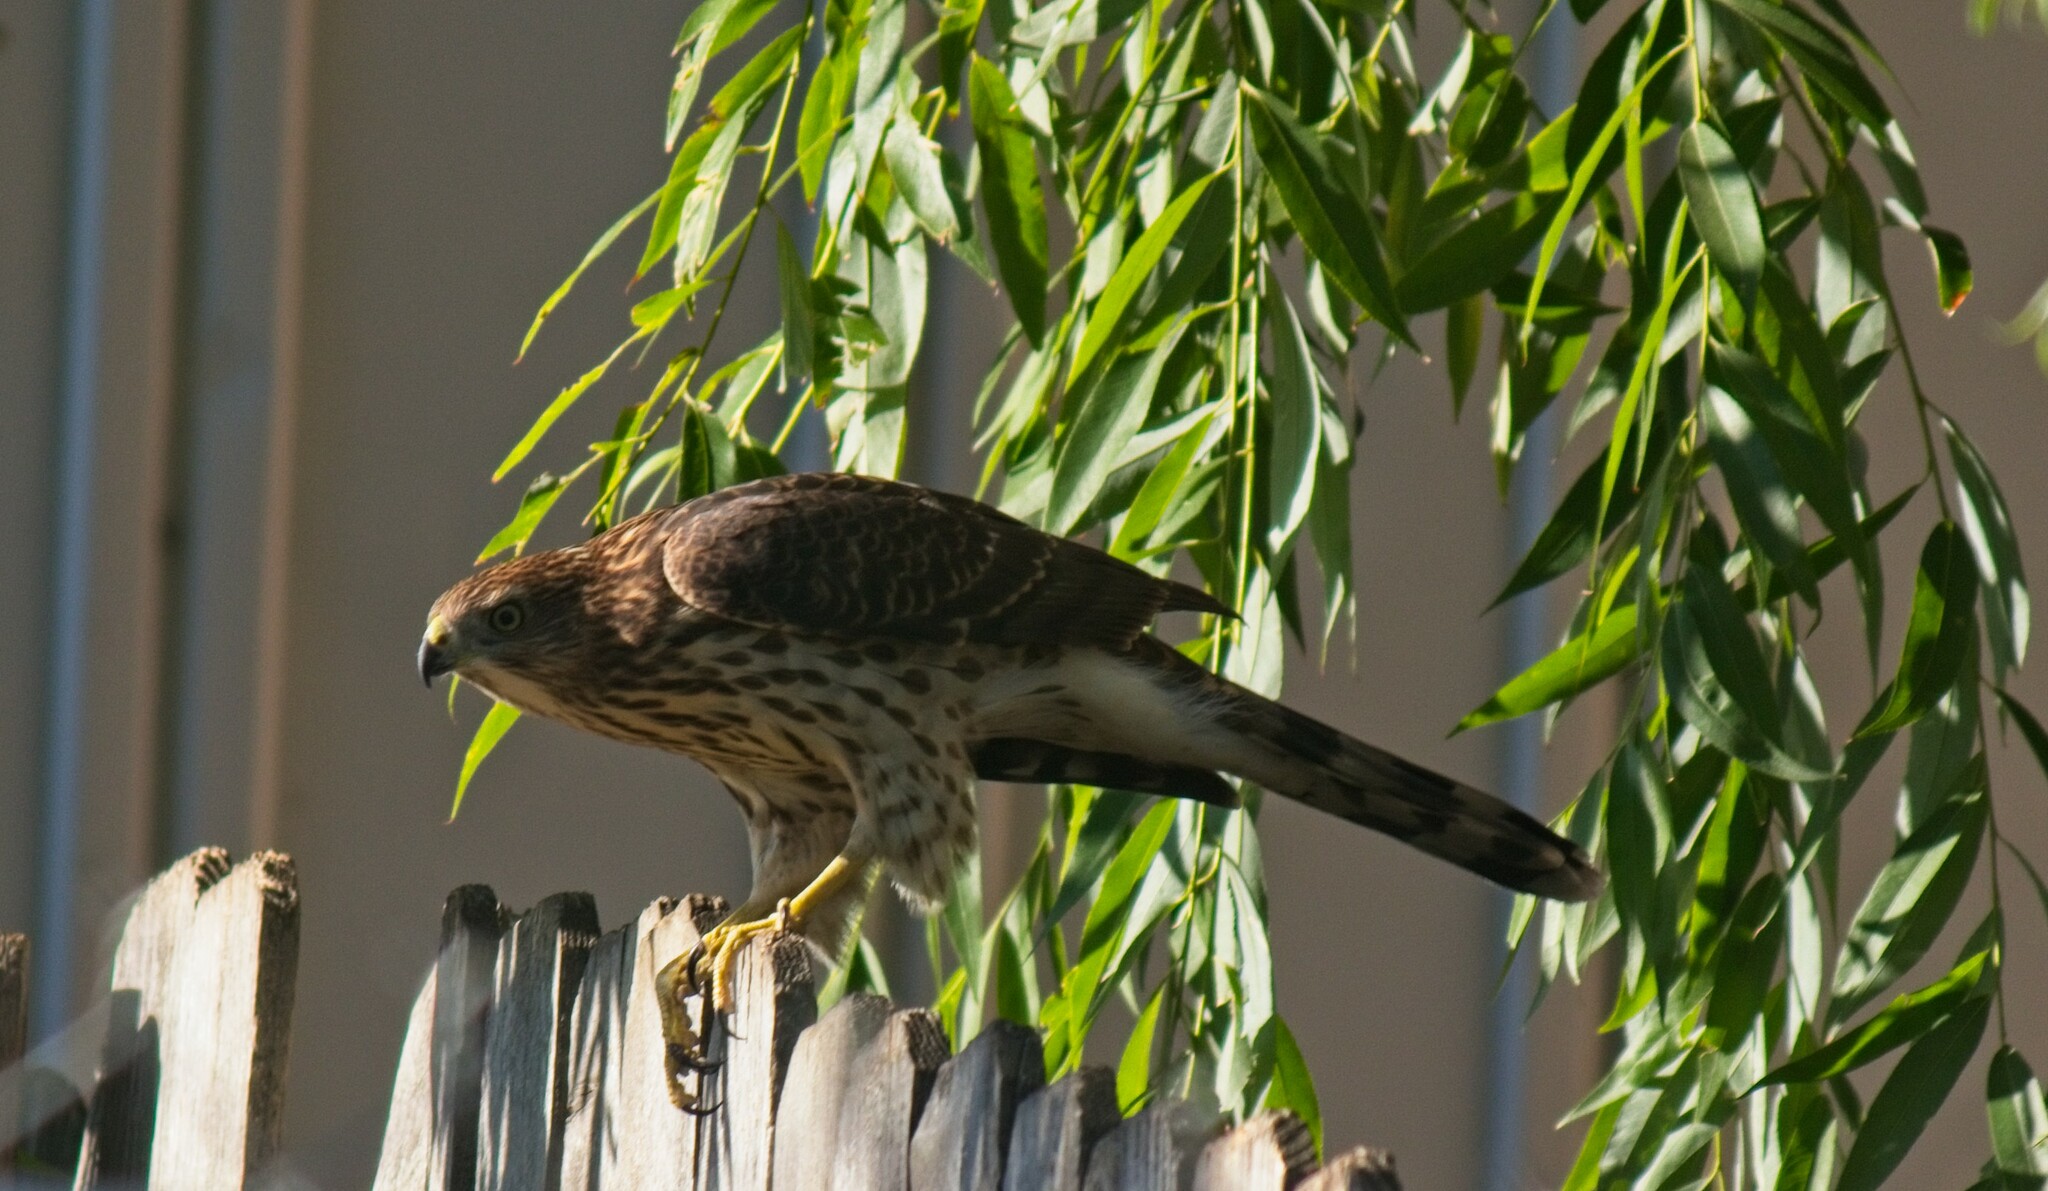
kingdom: Animalia
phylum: Chordata
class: Aves
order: Accipitriformes
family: Accipitridae
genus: Accipiter
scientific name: Accipiter cooperii
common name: Cooper's hawk
